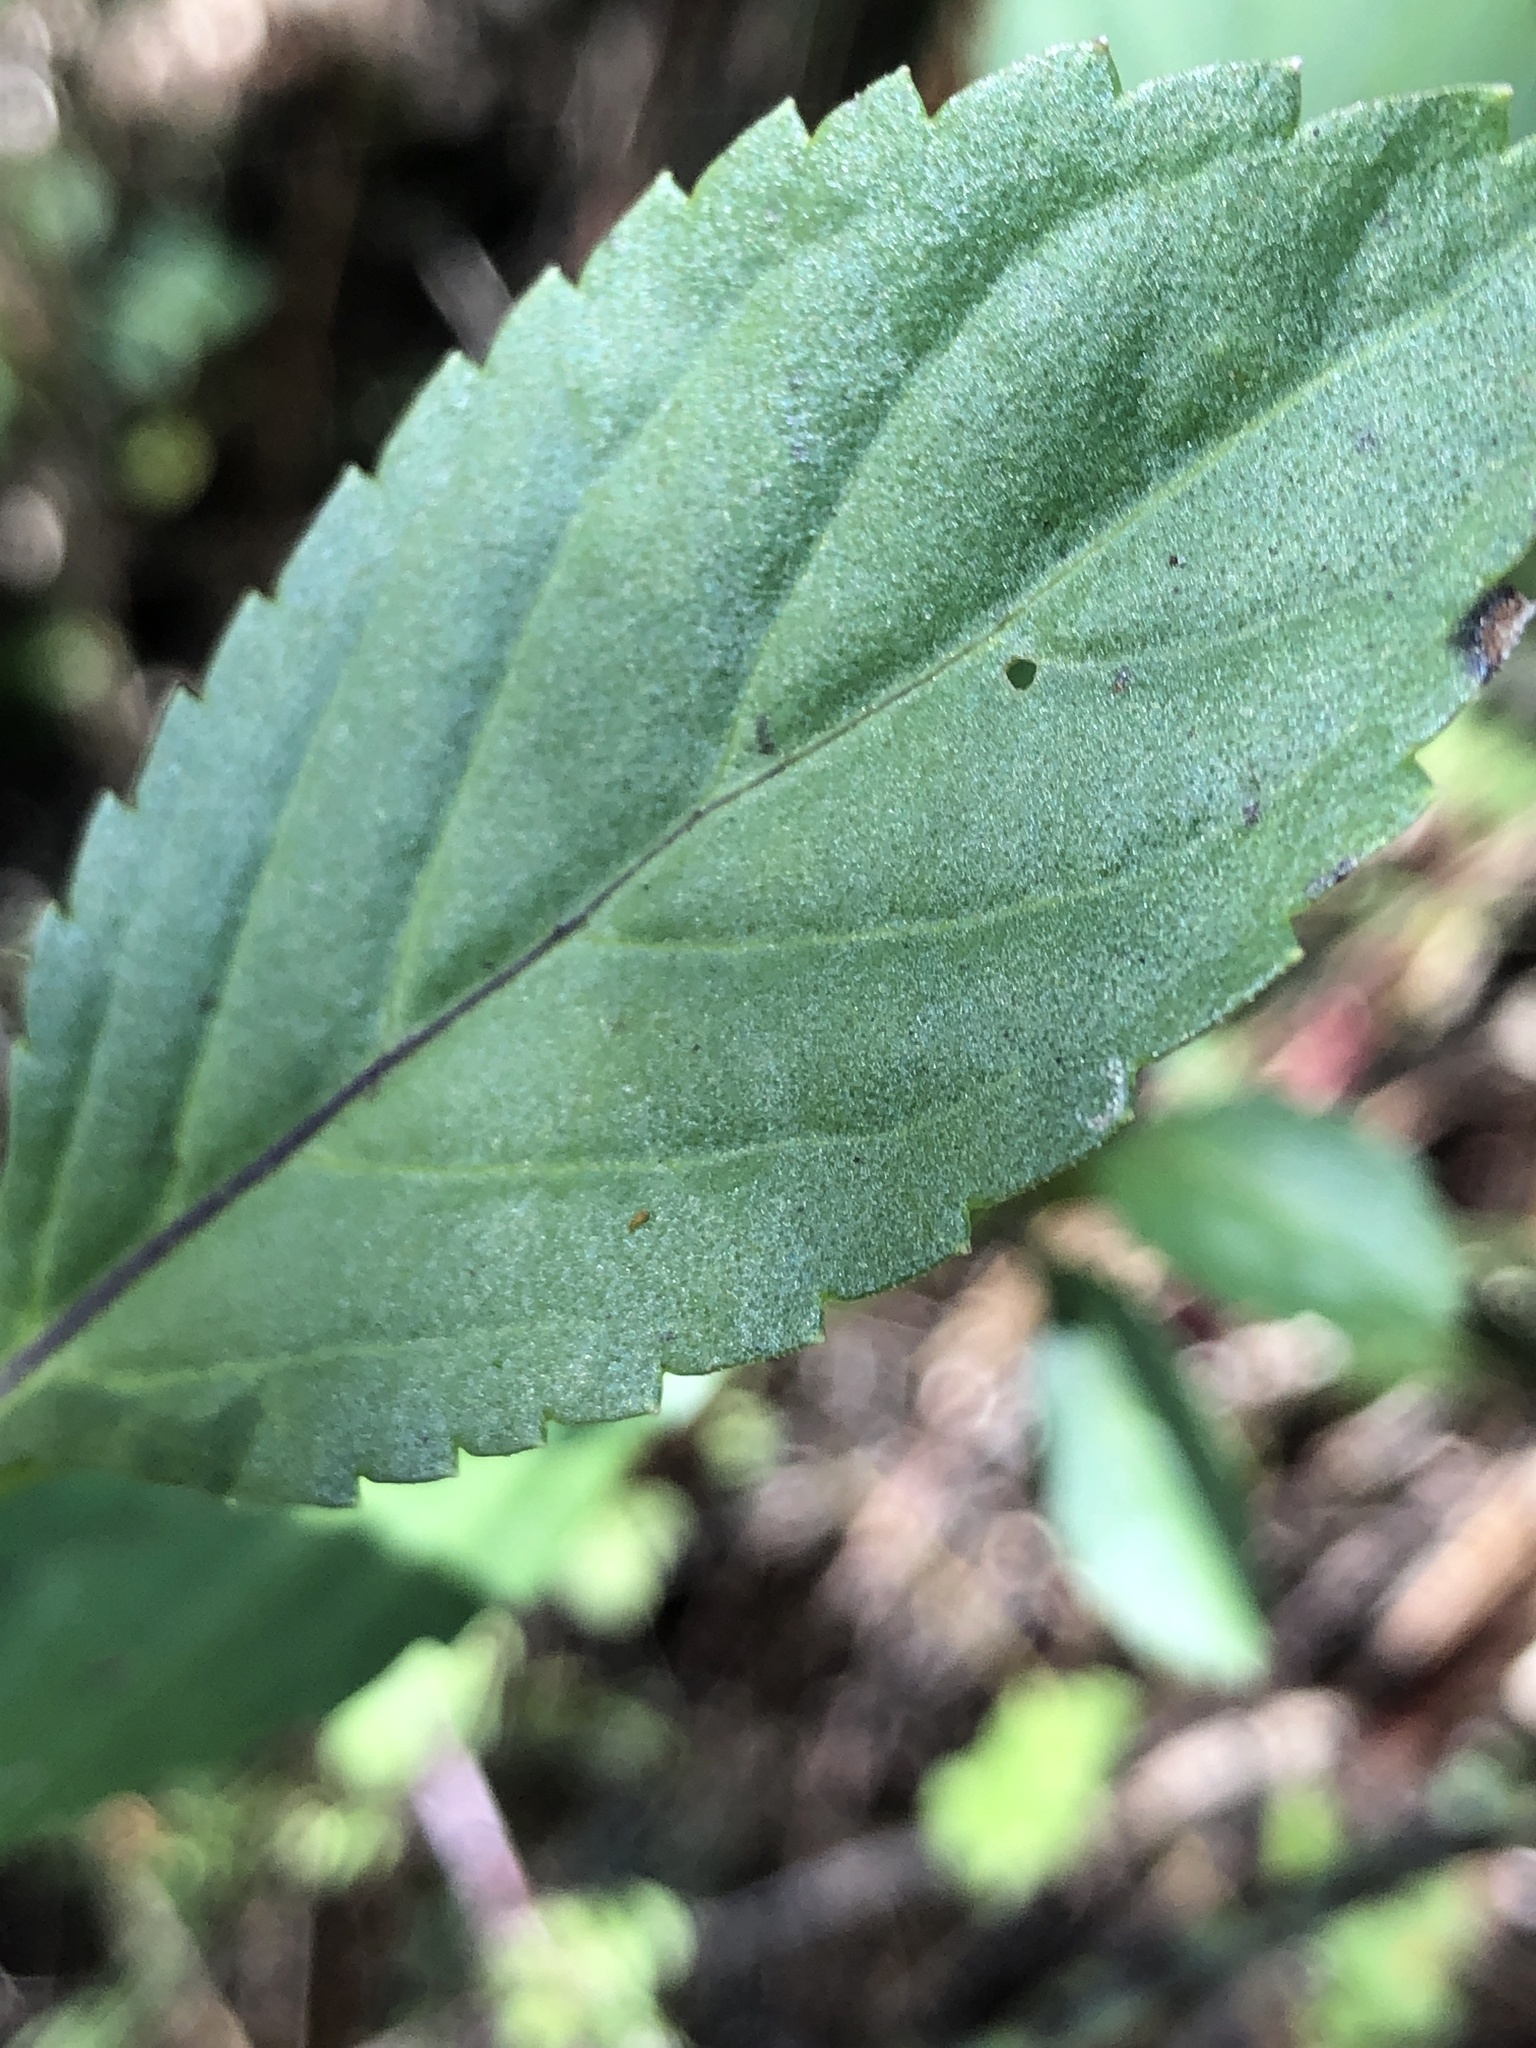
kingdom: Plantae
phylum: Tracheophyta
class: Magnoliopsida
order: Lamiales
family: Verbenaceae
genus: Stachytarpheta
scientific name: Stachytarpheta jamaicensis
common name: Light-blue snakeweed
